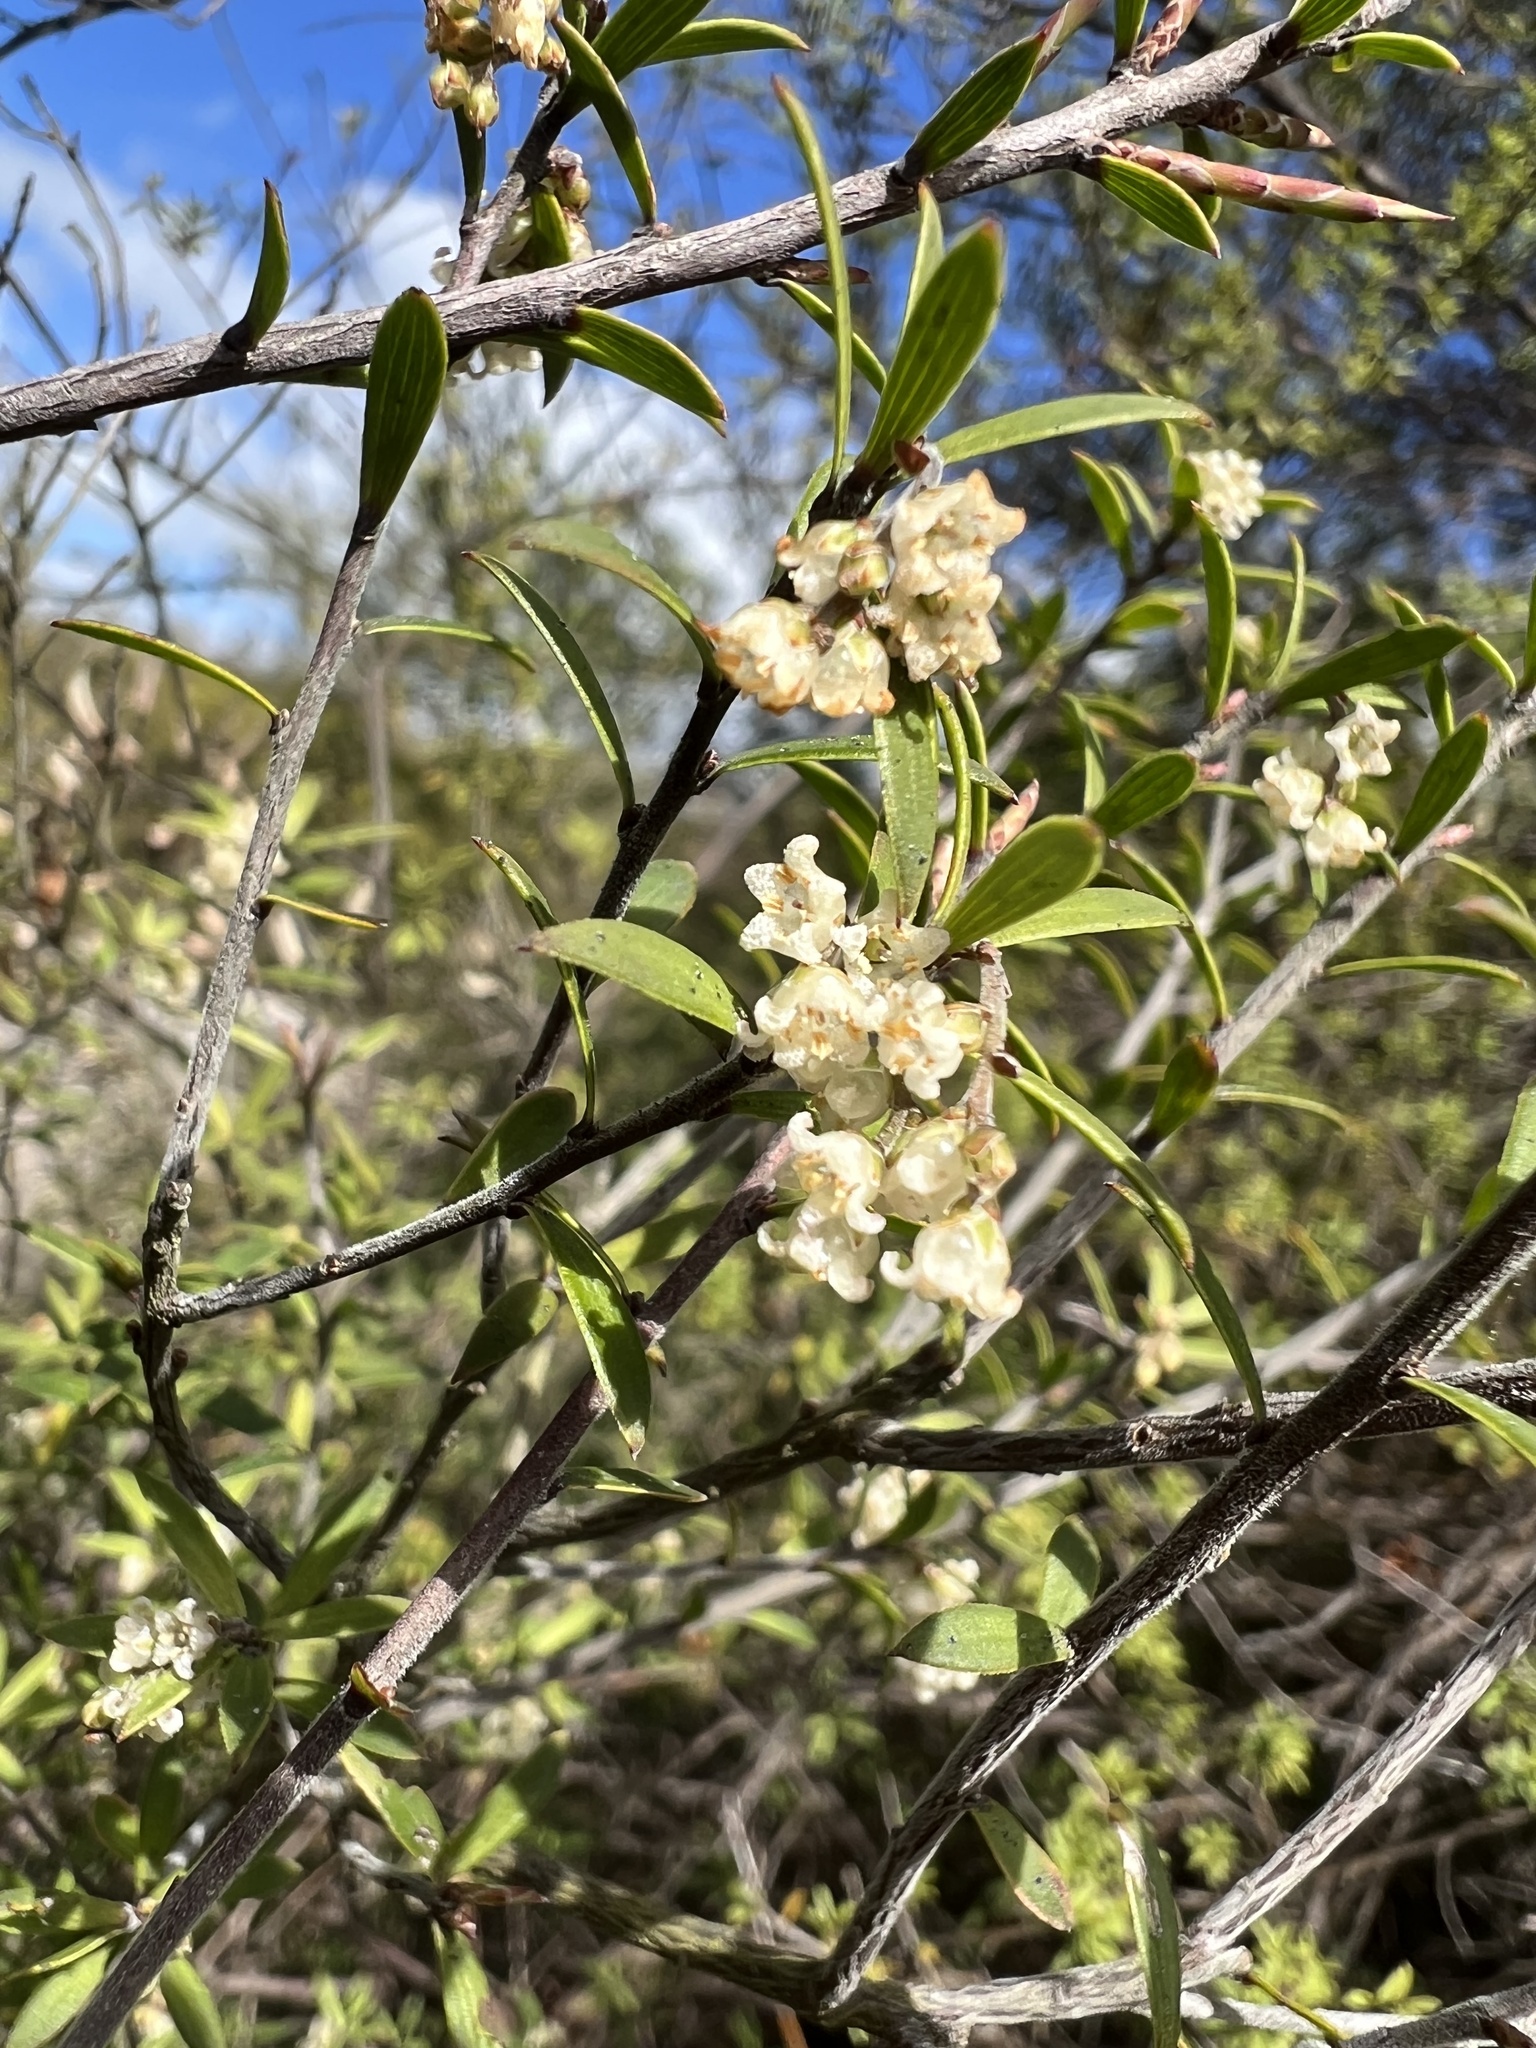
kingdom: Plantae
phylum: Tracheophyta
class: Magnoliopsida
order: Ericales
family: Ericaceae
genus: Leucopogon
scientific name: Leucopogon fasciculatus
